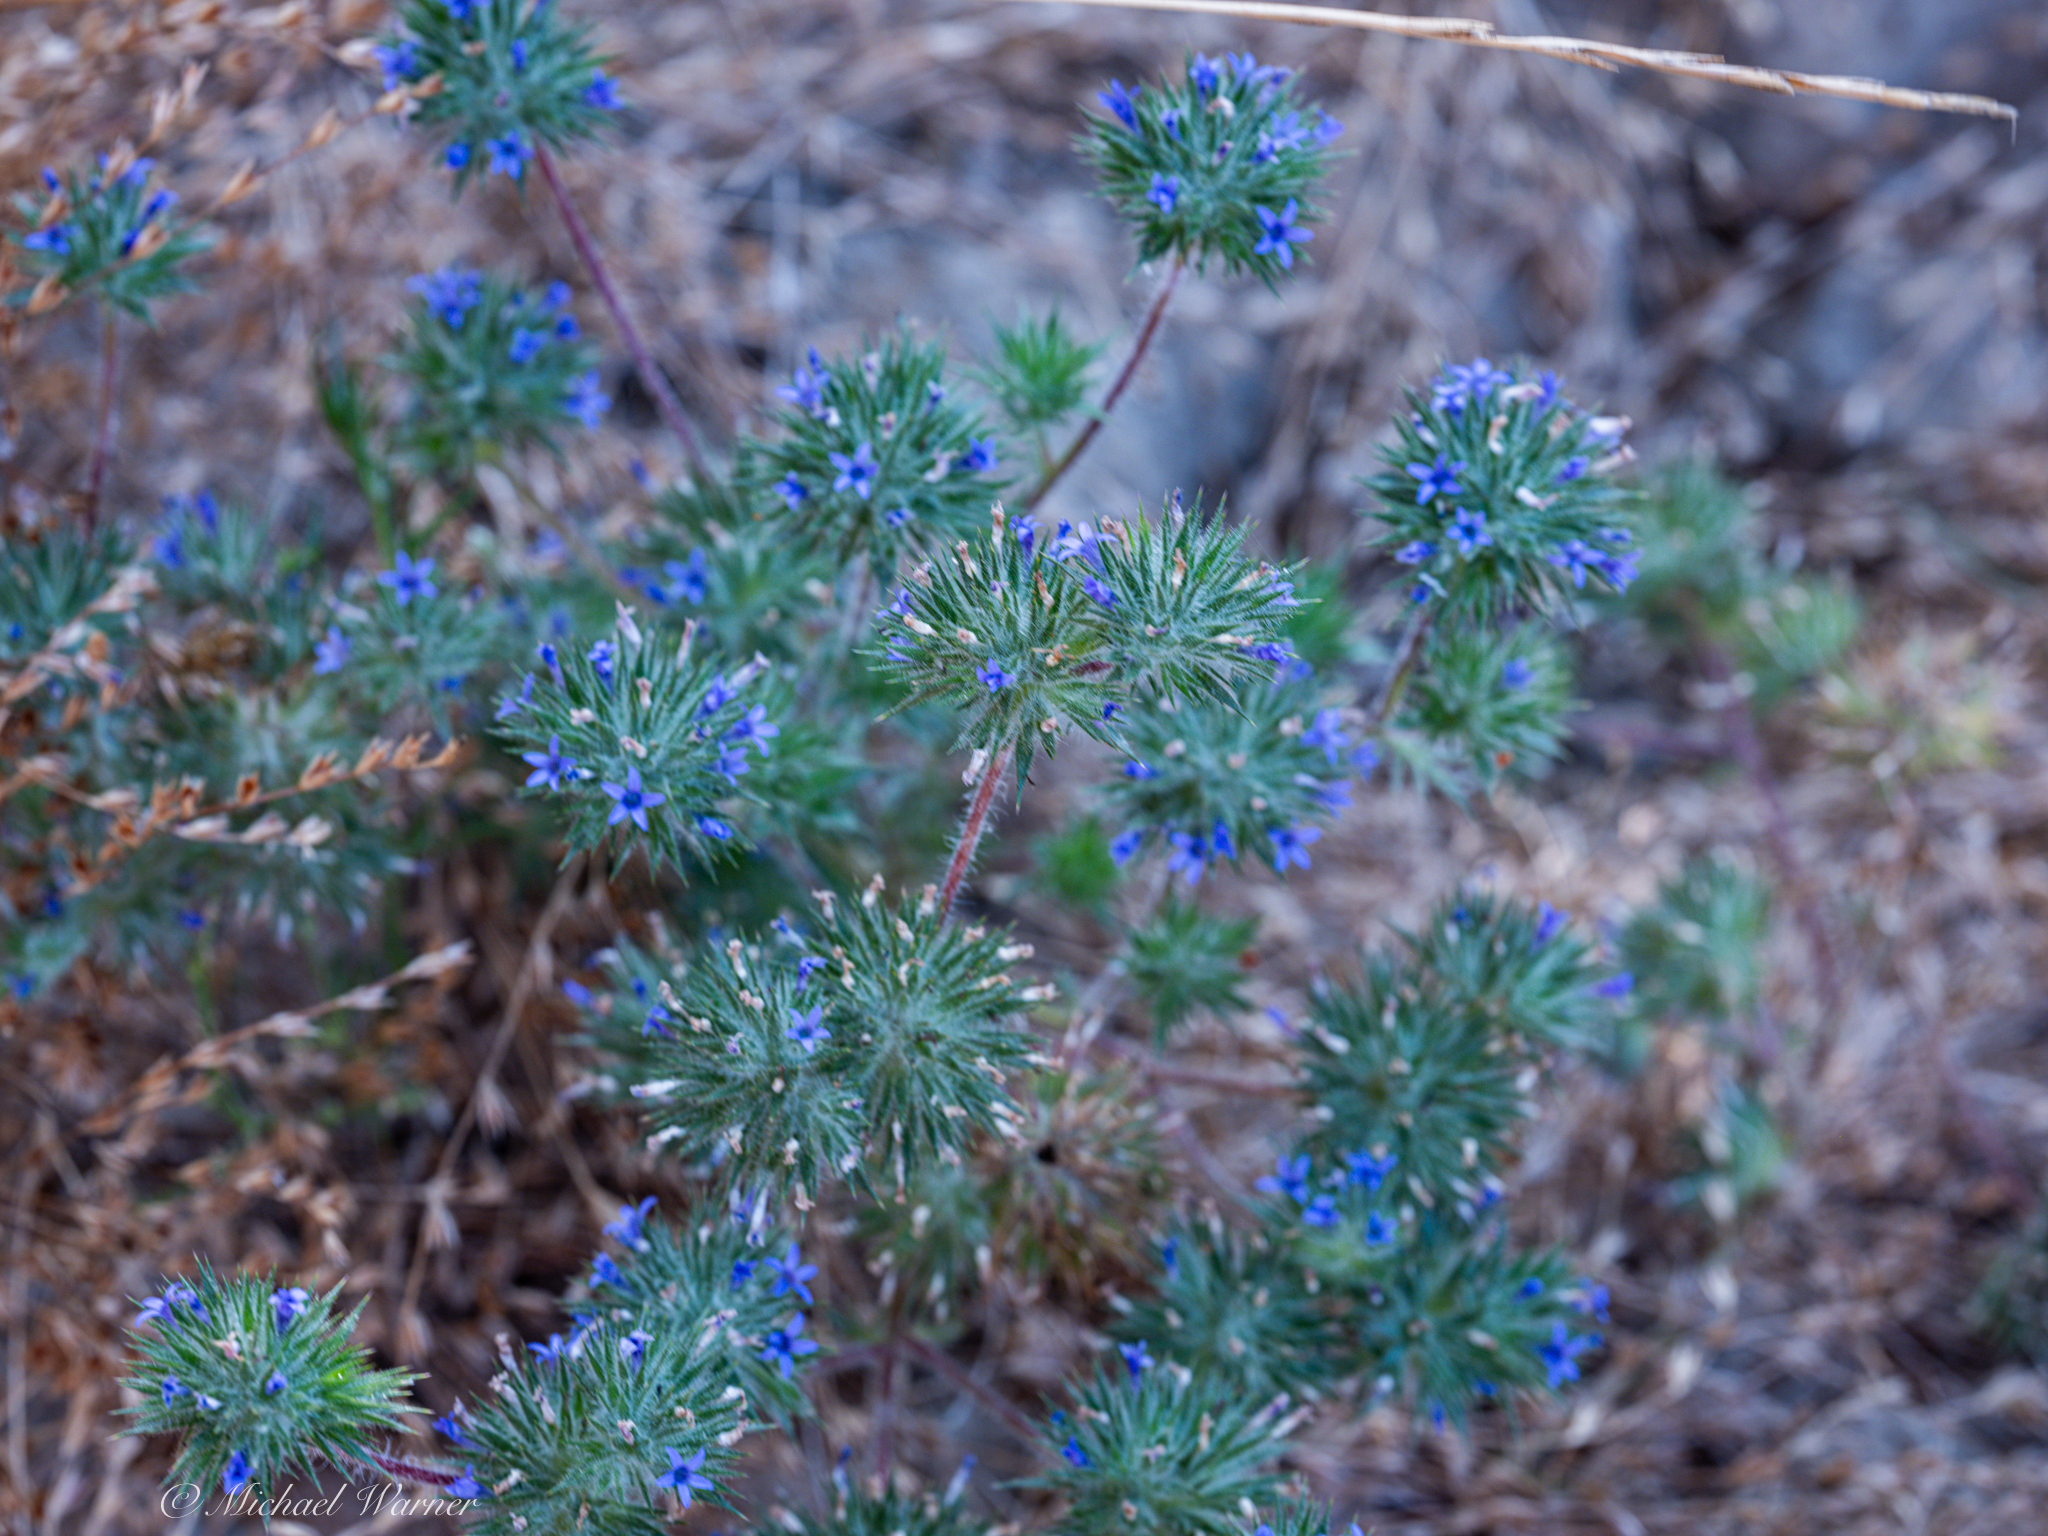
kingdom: Plantae
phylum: Tracheophyta
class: Magnoliopsida
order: Ericales
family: Polemoniaceae
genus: Navarretia
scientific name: Navarretia squarrosa
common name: Skunkweed
